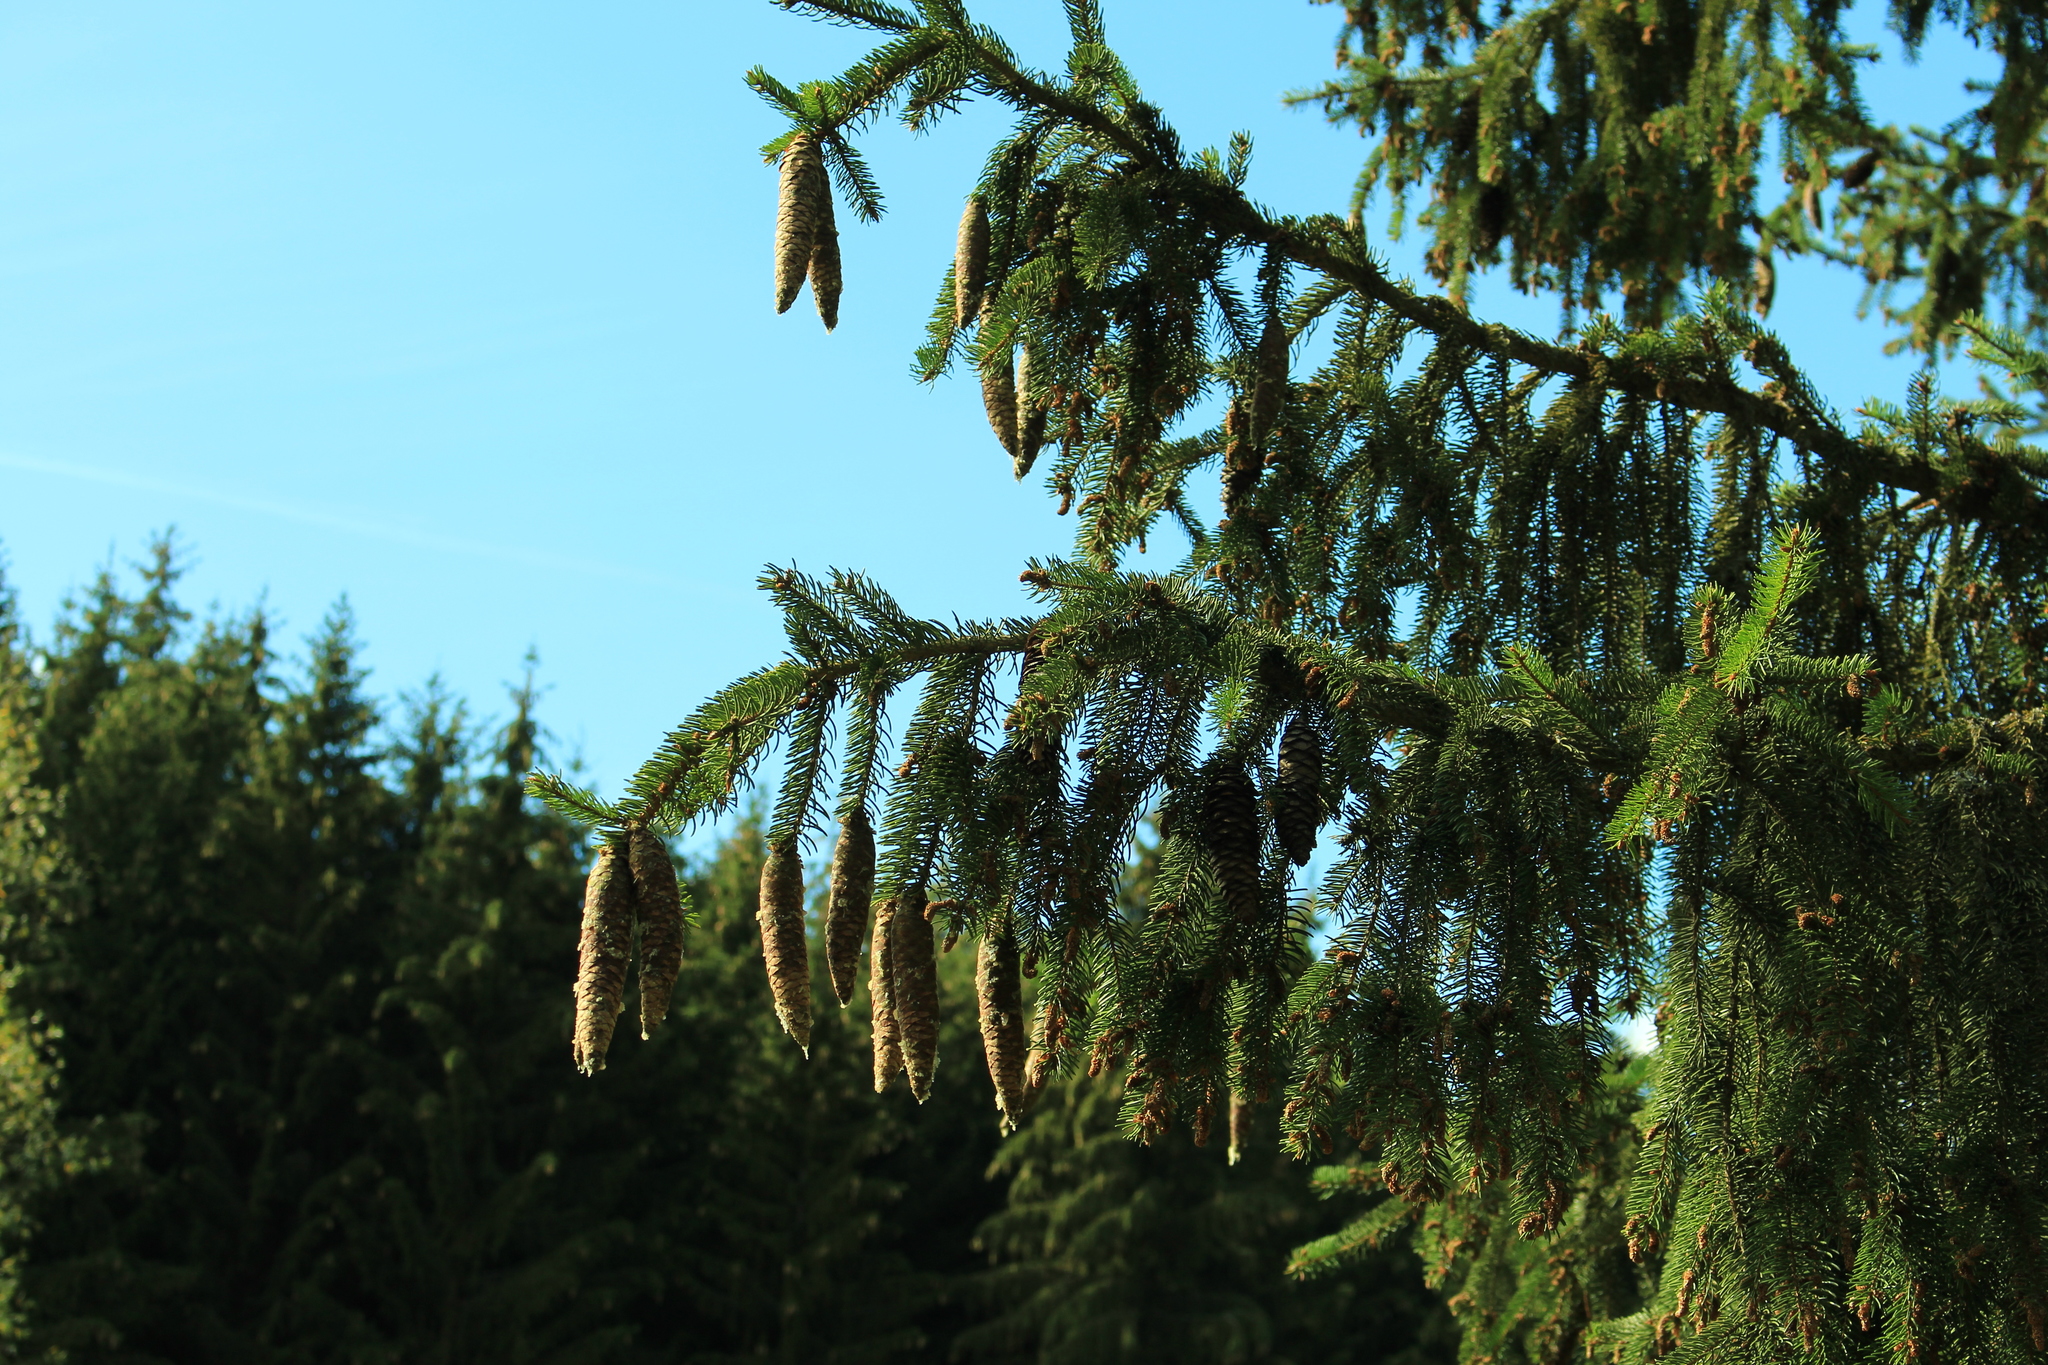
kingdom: Plantae
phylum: Tracheophyta
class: Pinopsida
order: Pinales
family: Pinaceae
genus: Picea
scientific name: Picea abies
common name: Norway spruce
